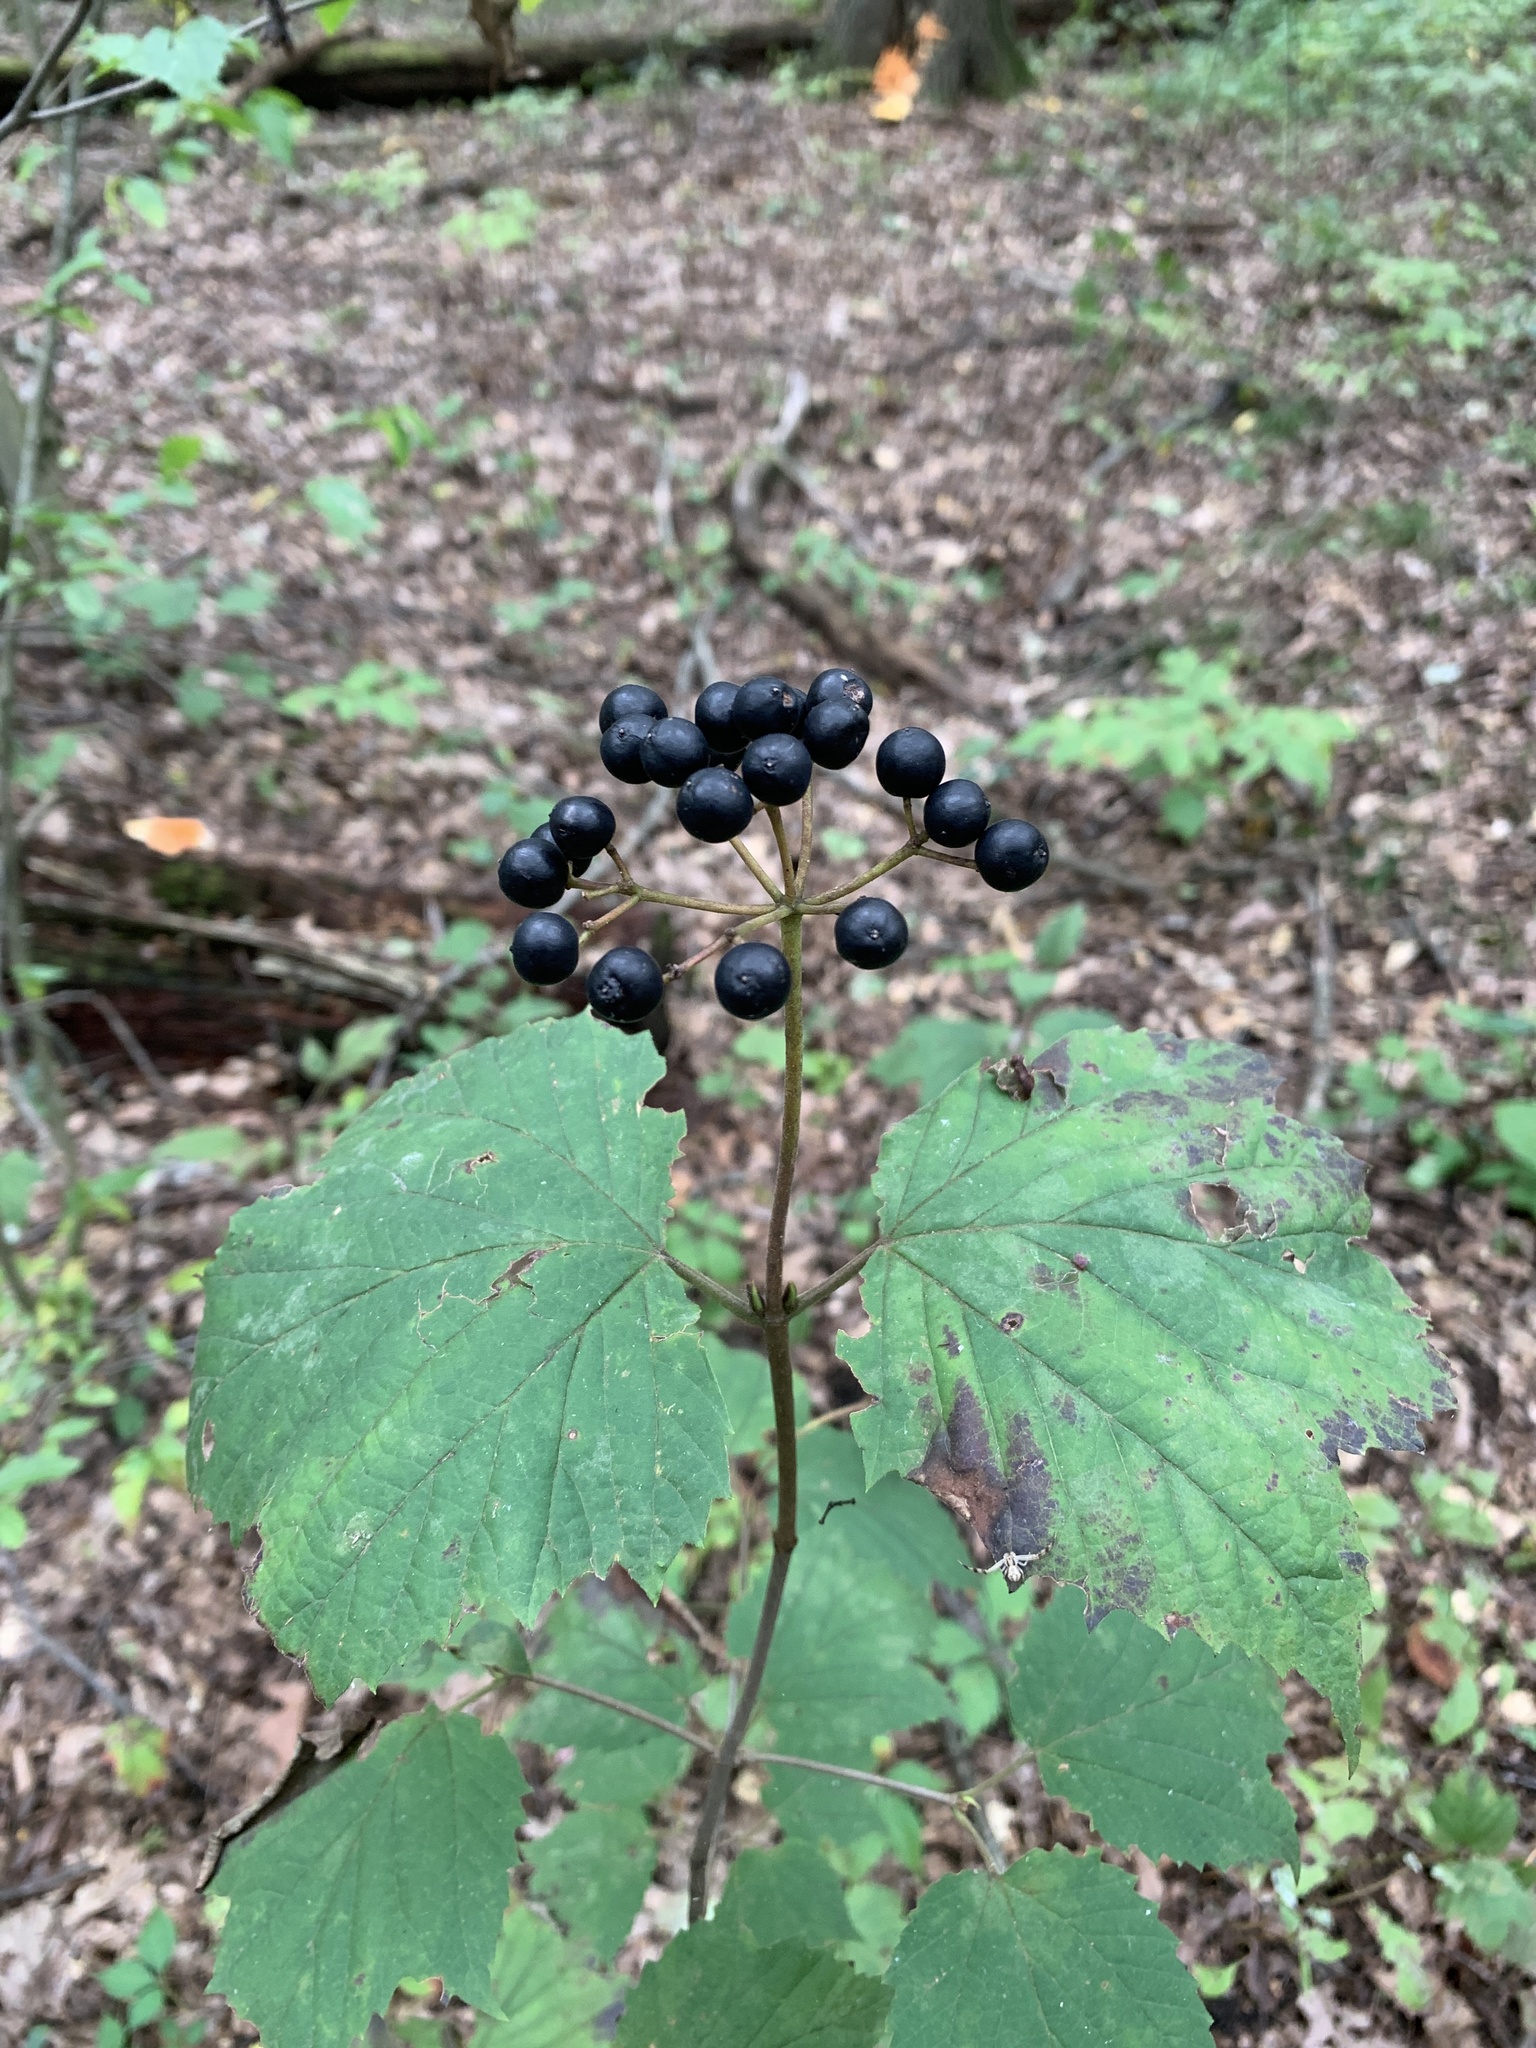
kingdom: Plantae
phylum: Tracheophyta
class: Magnoliopsida
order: Dipsacales
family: Viburnaceae
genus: Viburnum
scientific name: Viburnum acerifolium
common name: Dockmackie
